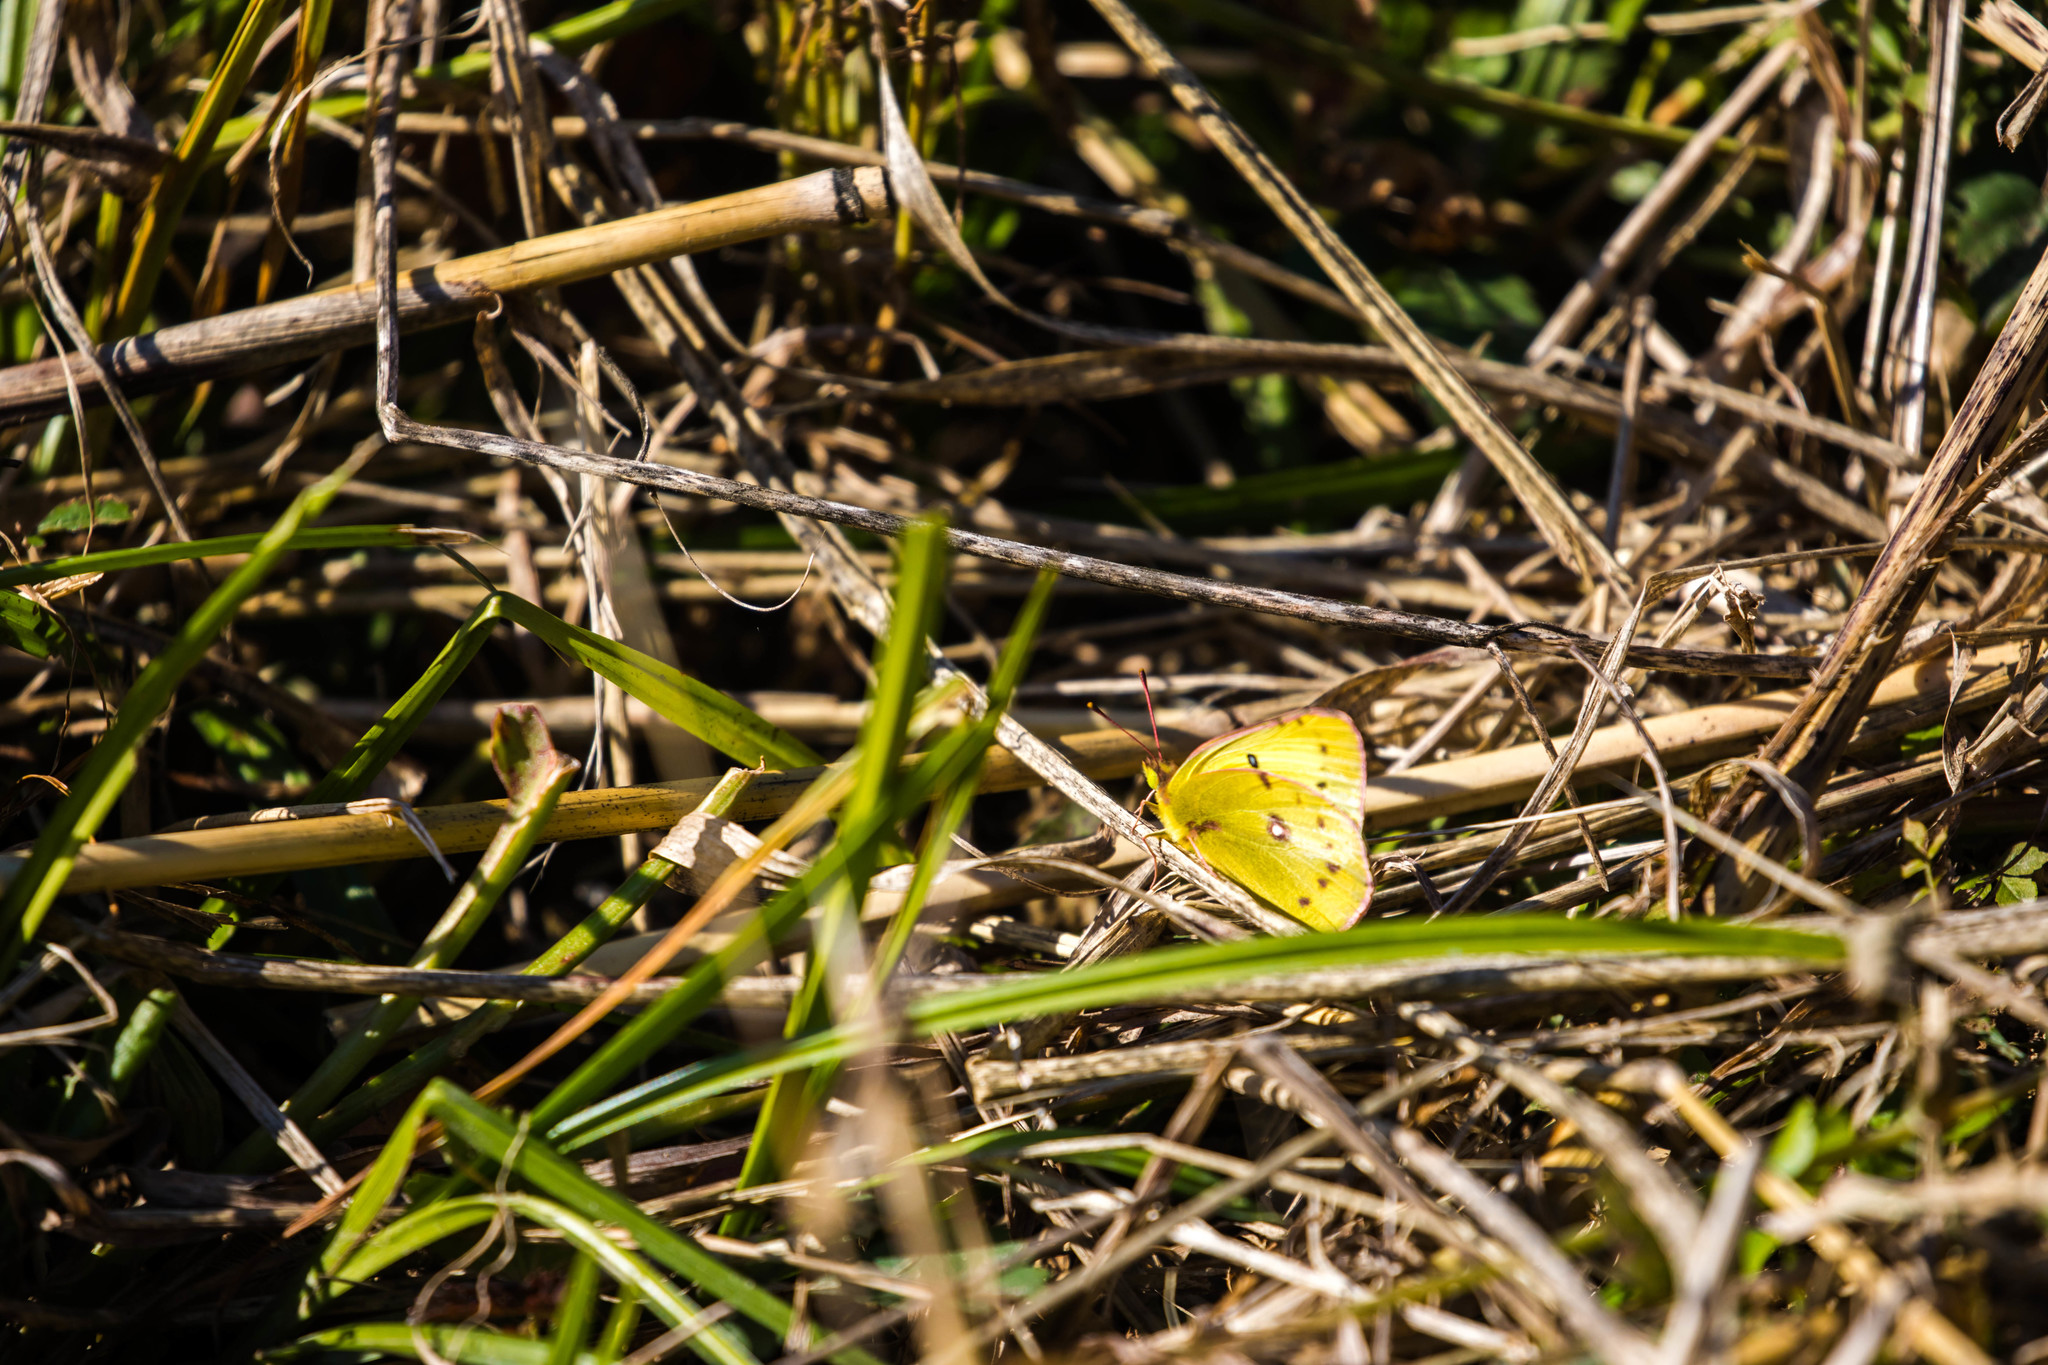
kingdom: Animalia
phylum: Arthropoda
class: Insecta
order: Lepidoptera
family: Pieridae
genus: Colias
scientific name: Colias eurytheme
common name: Alfalfa butterfly
